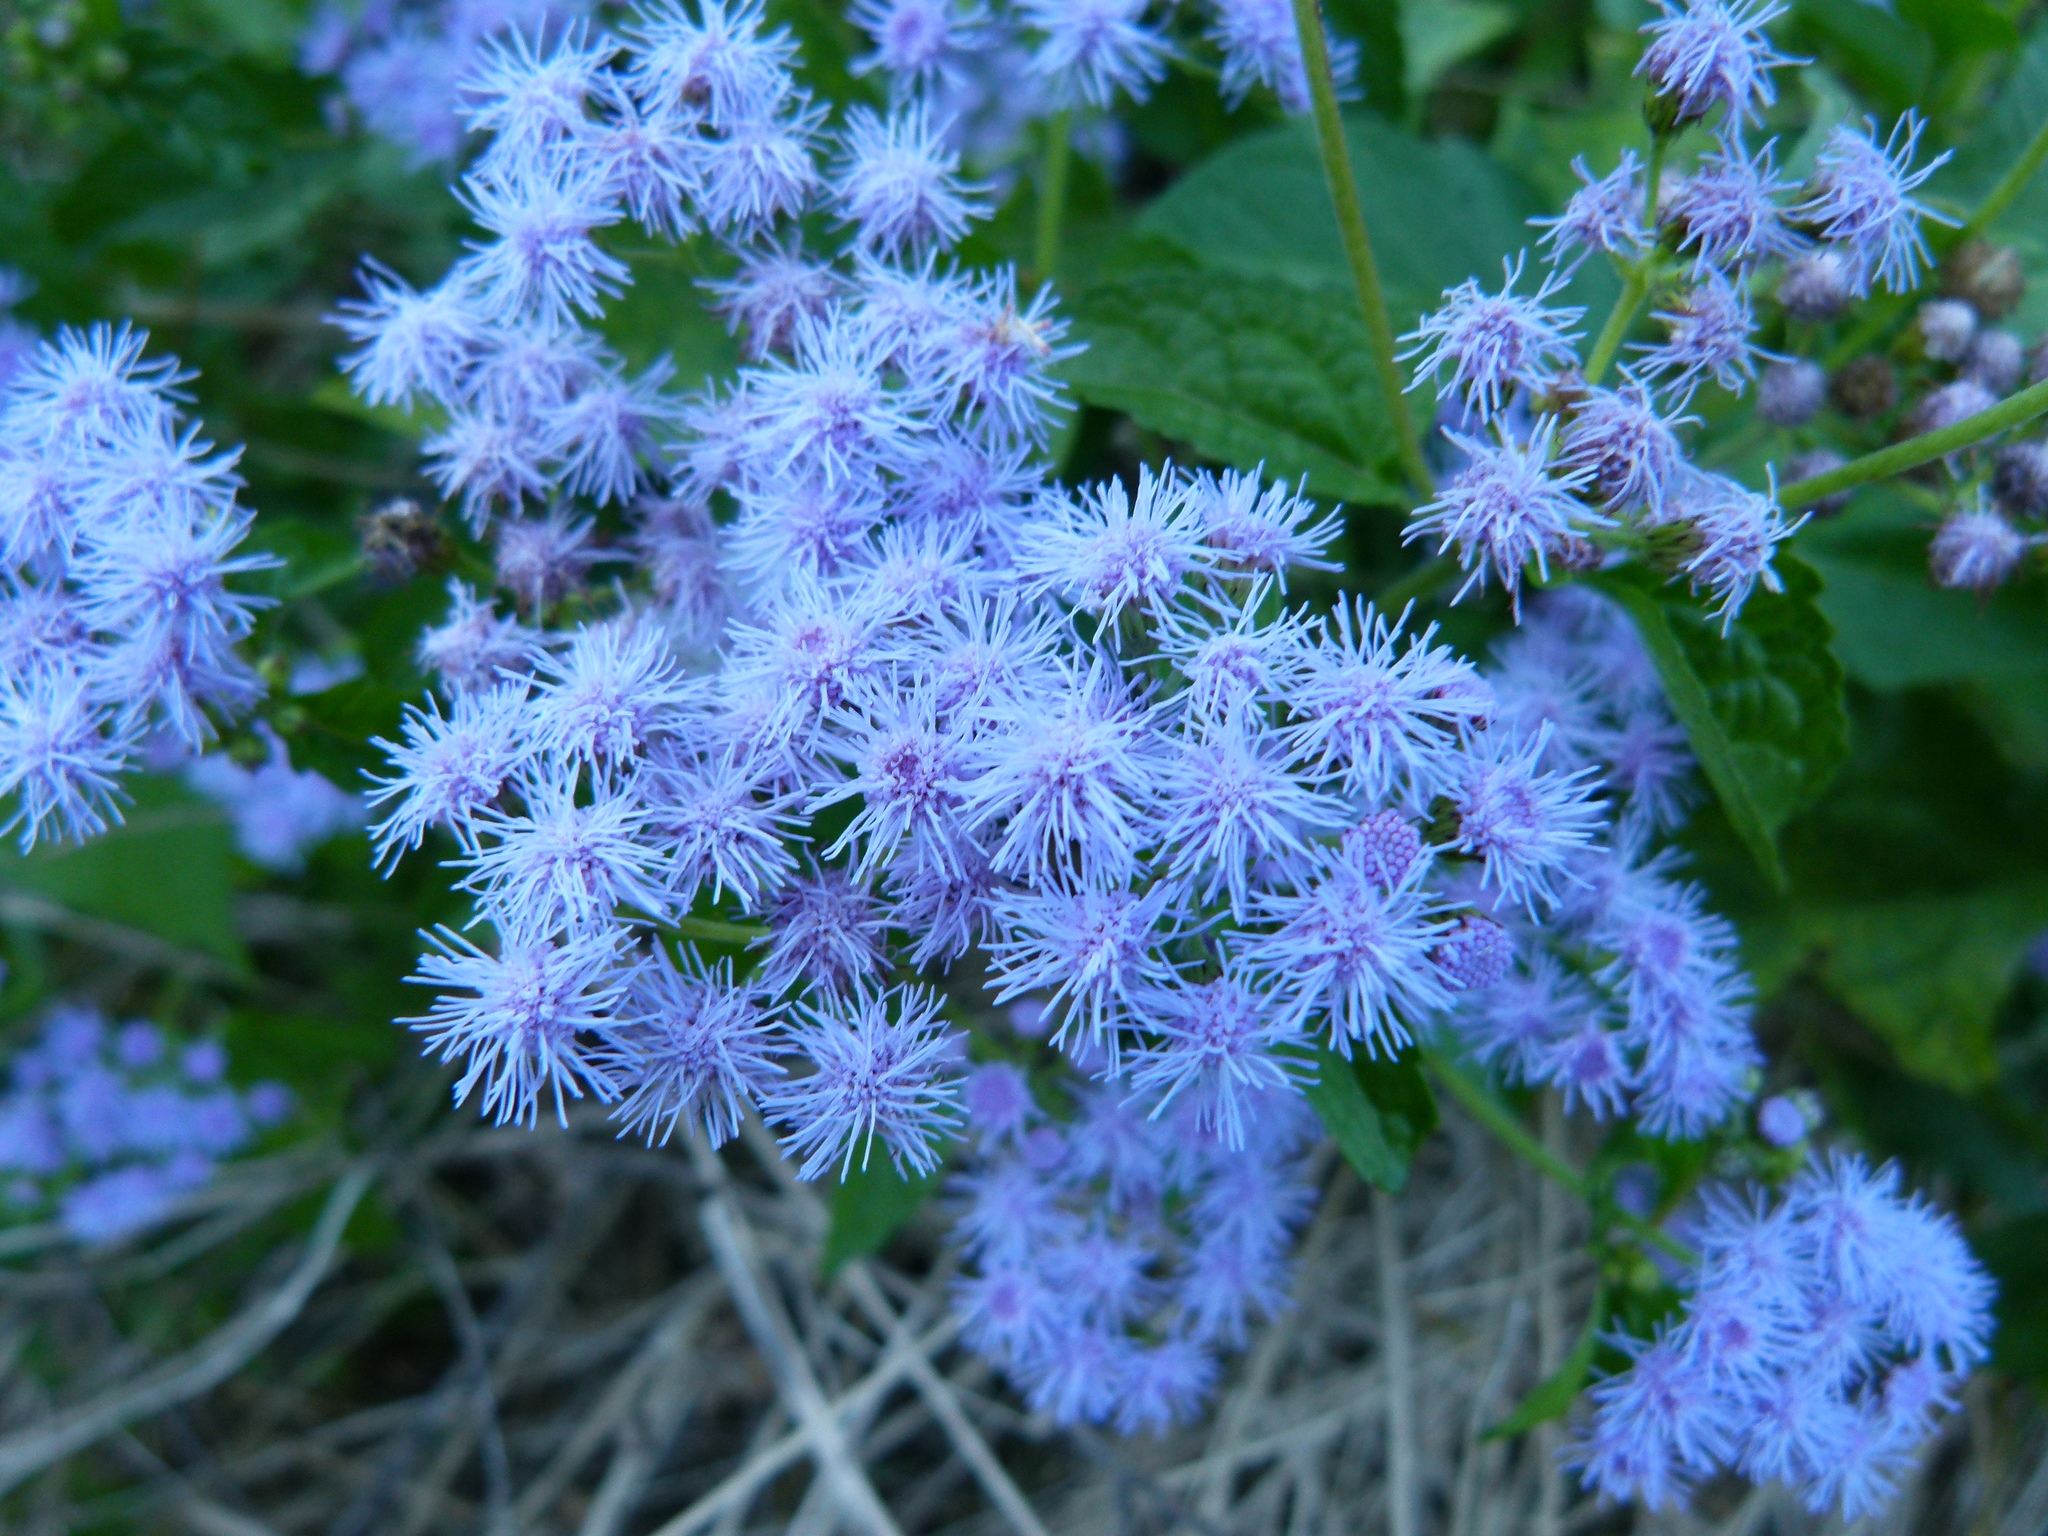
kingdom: Plantae
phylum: Tracheophyta
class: Magnoliopsida
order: Asterales
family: Asteraceae
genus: Conoclinium
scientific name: Conoclinium coelestinum
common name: Blue mistflower
